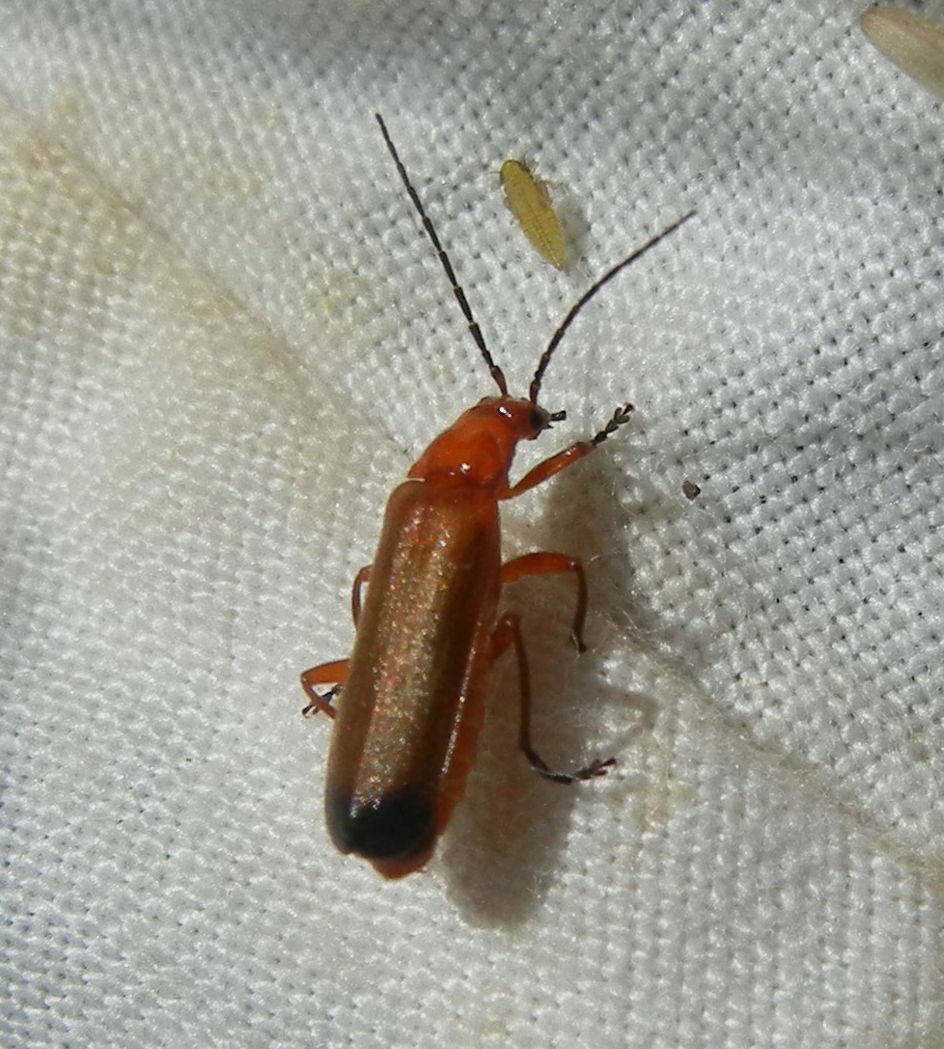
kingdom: Animalia
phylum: Arthropoda
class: Insecta
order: Coleoptera
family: Cantharidae
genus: Rhagonycha
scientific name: Rhagonycha fulva
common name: Common red soldier beetle
